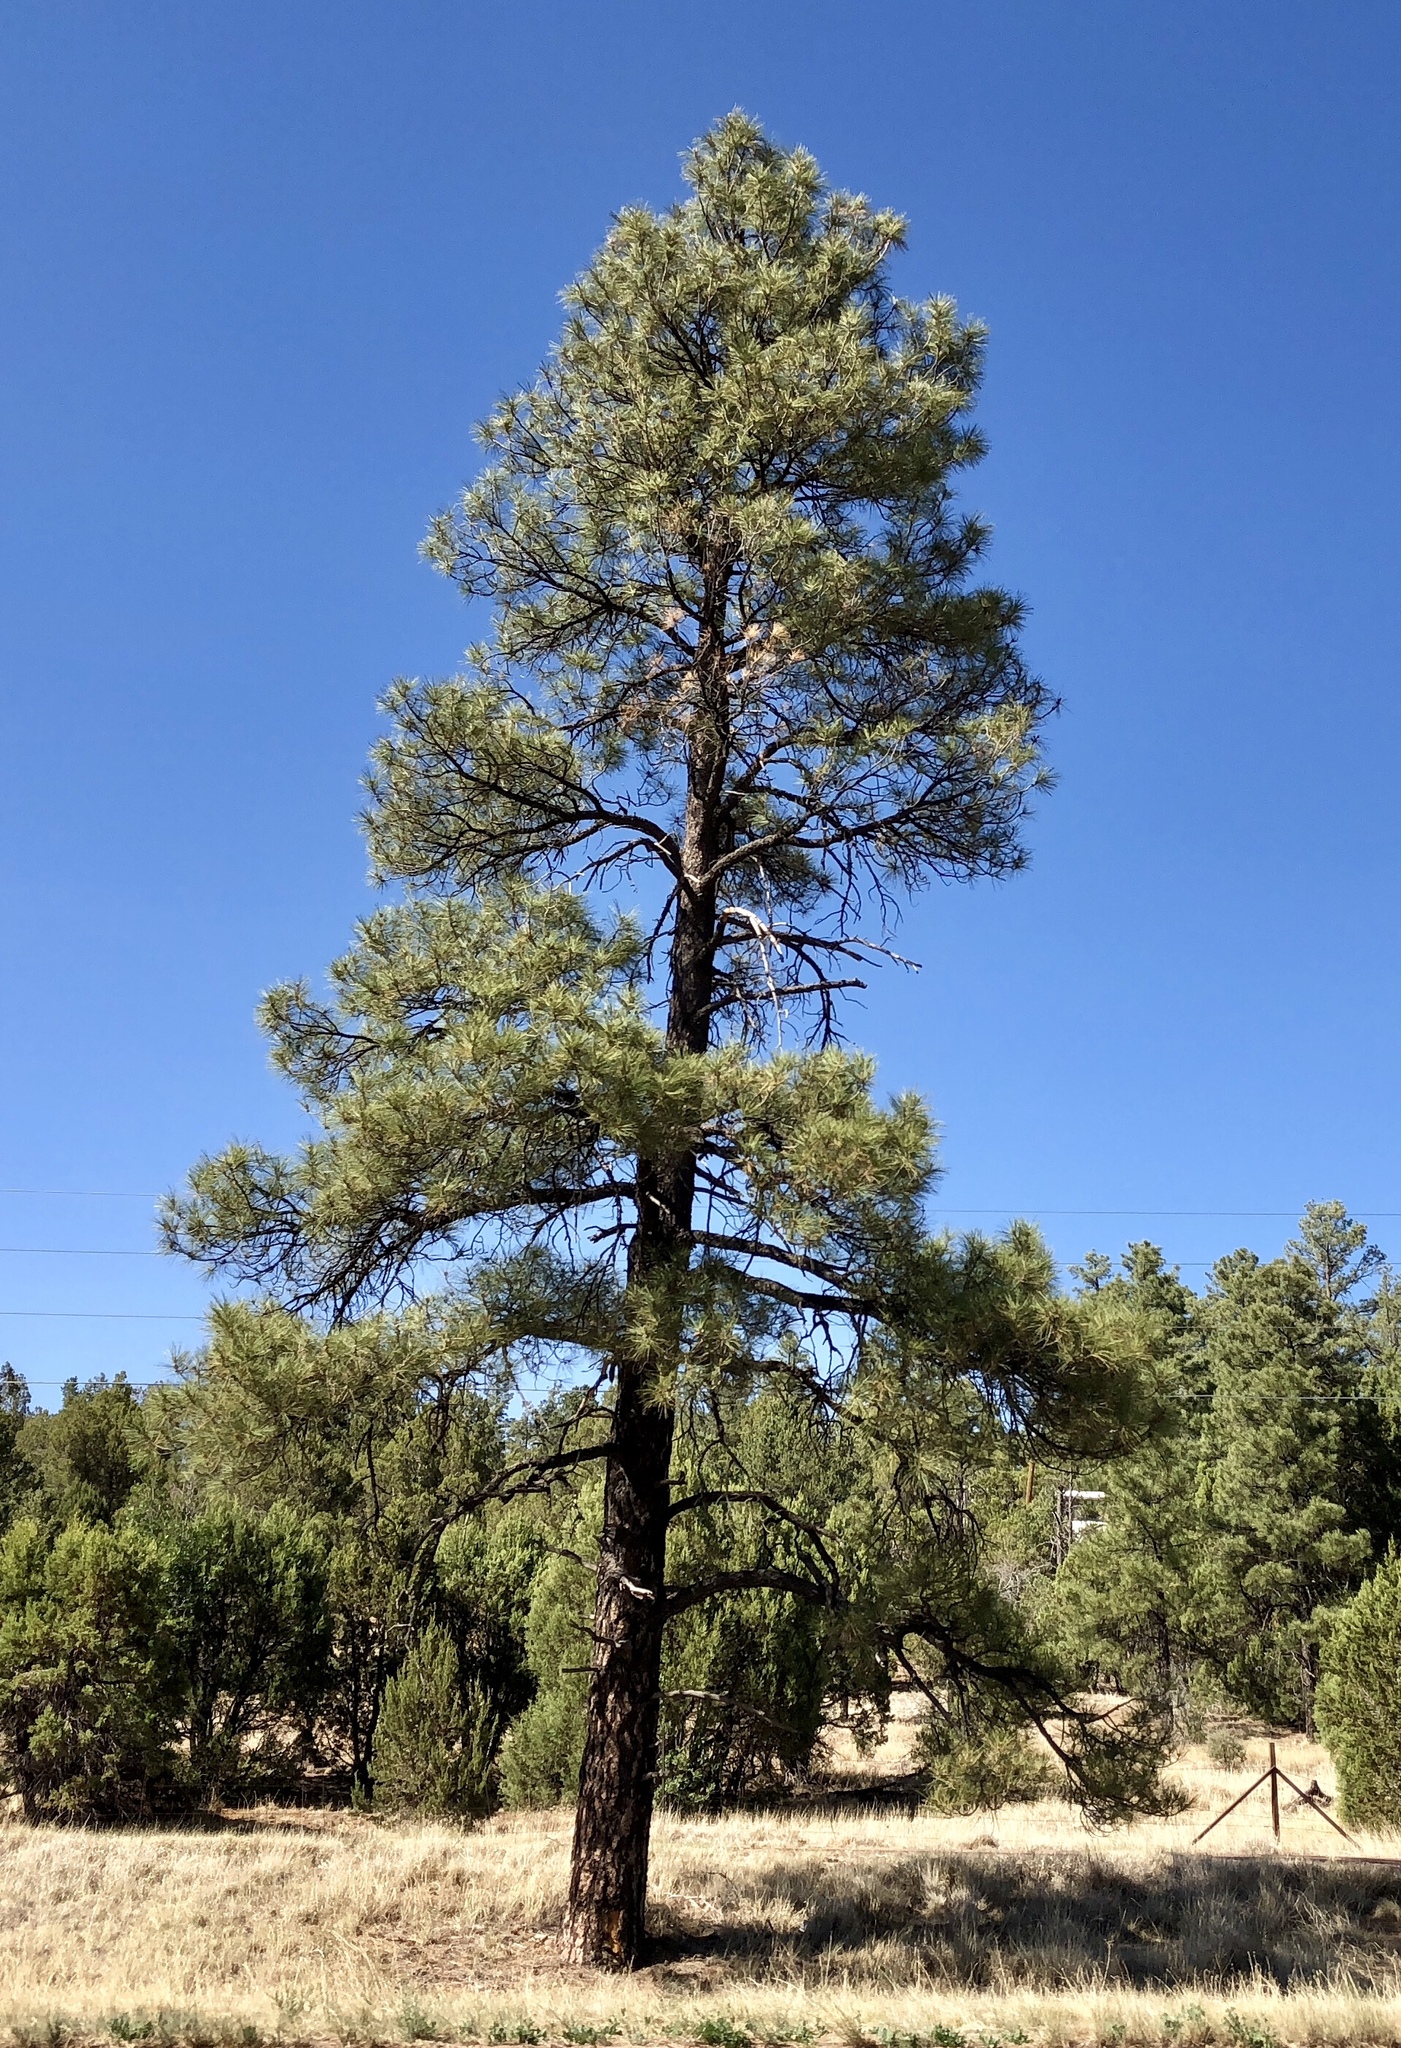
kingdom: Plantae
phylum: Tracheophyta
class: Pinopsida
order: Pinales
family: Pinaceae
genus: Pinus
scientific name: Pinus ponderosa
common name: Western yellow-pine
